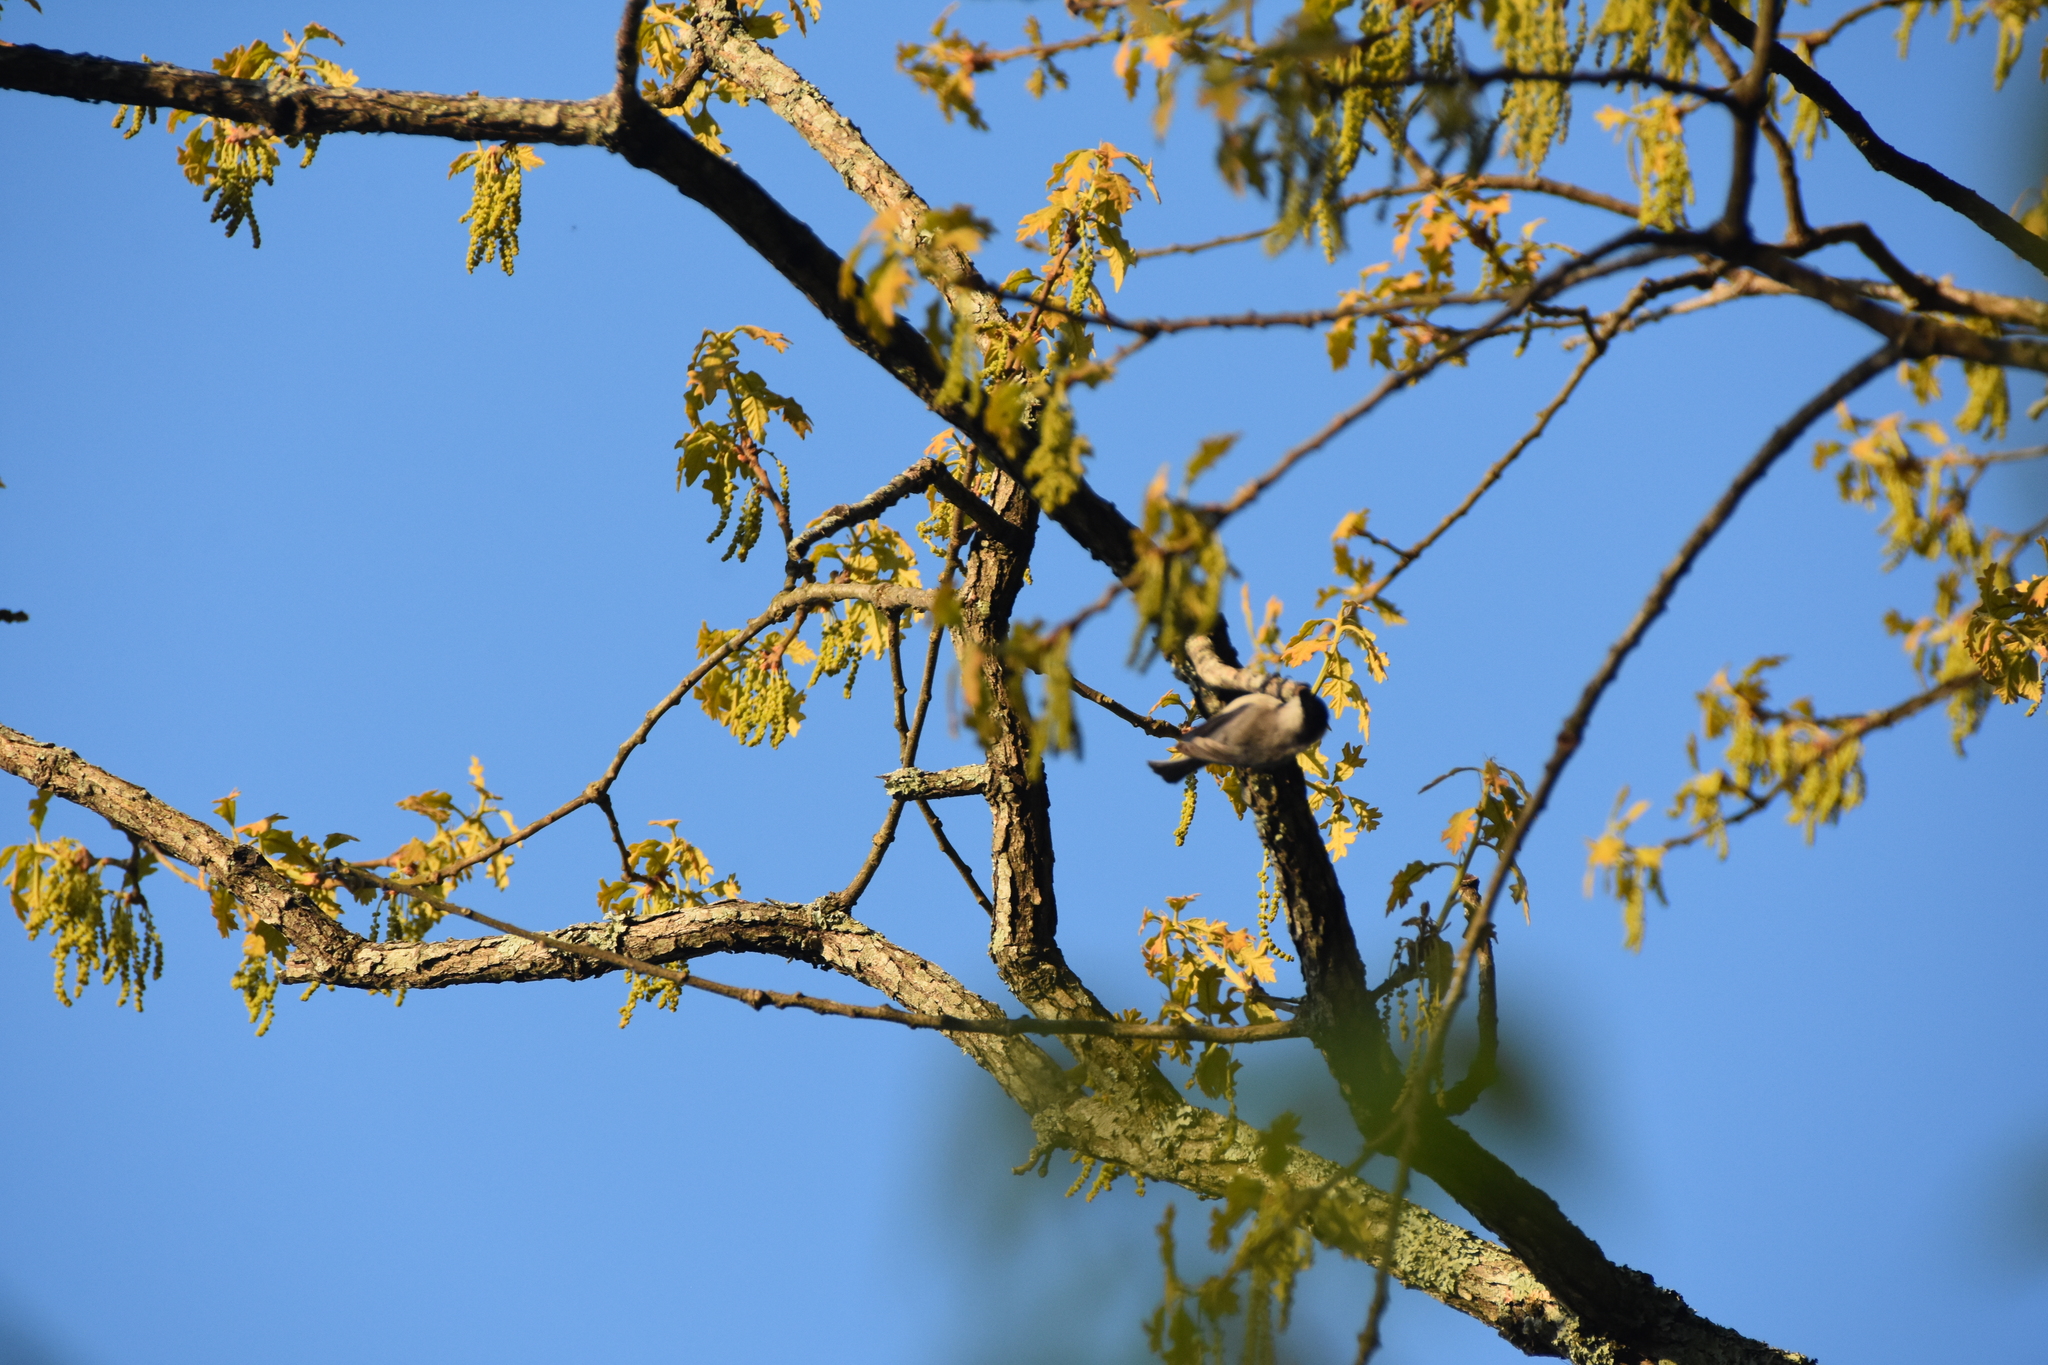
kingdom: Animalia
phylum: Chordata
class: Aves
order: Passeriformes
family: Paridae
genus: Poecile
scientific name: Poecile carolinensis
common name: Carolina chickadee
